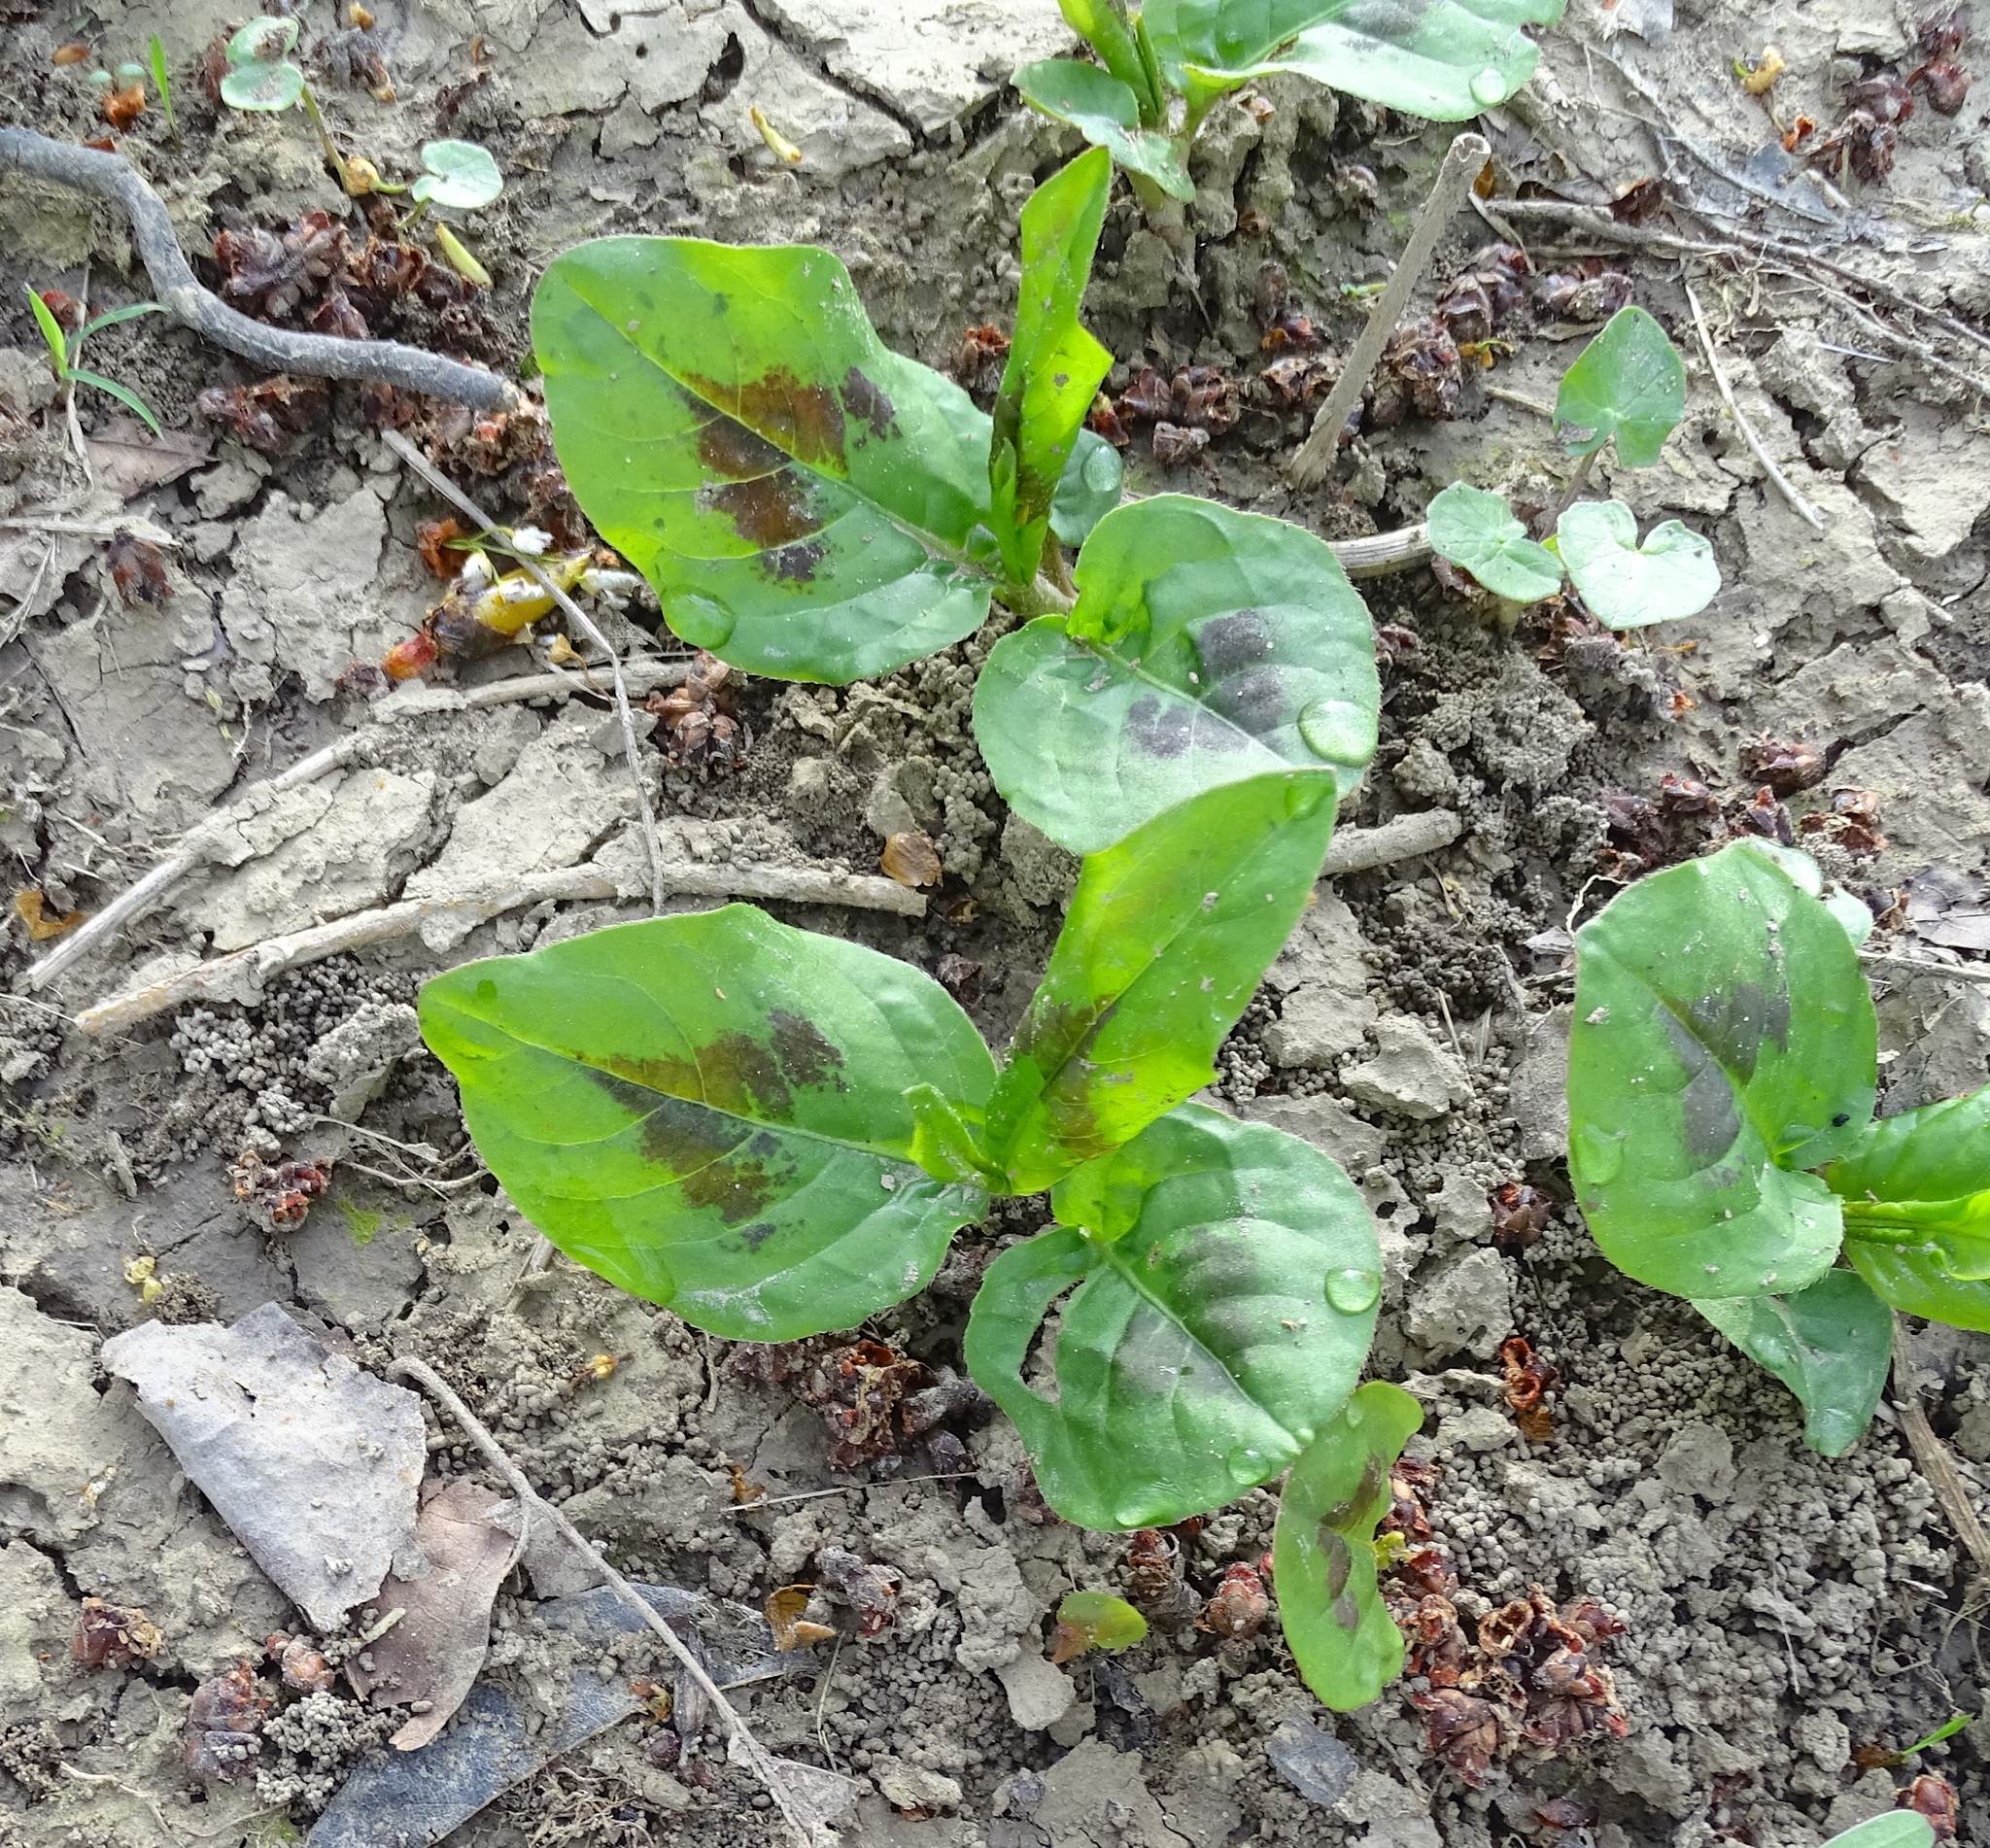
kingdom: Plantae
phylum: Tracheophyta
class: Magnoliopsida
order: Caryophyllales
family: Polygonaceae
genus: Persicaria
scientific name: Persicaria virginiana
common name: Jumpseed
